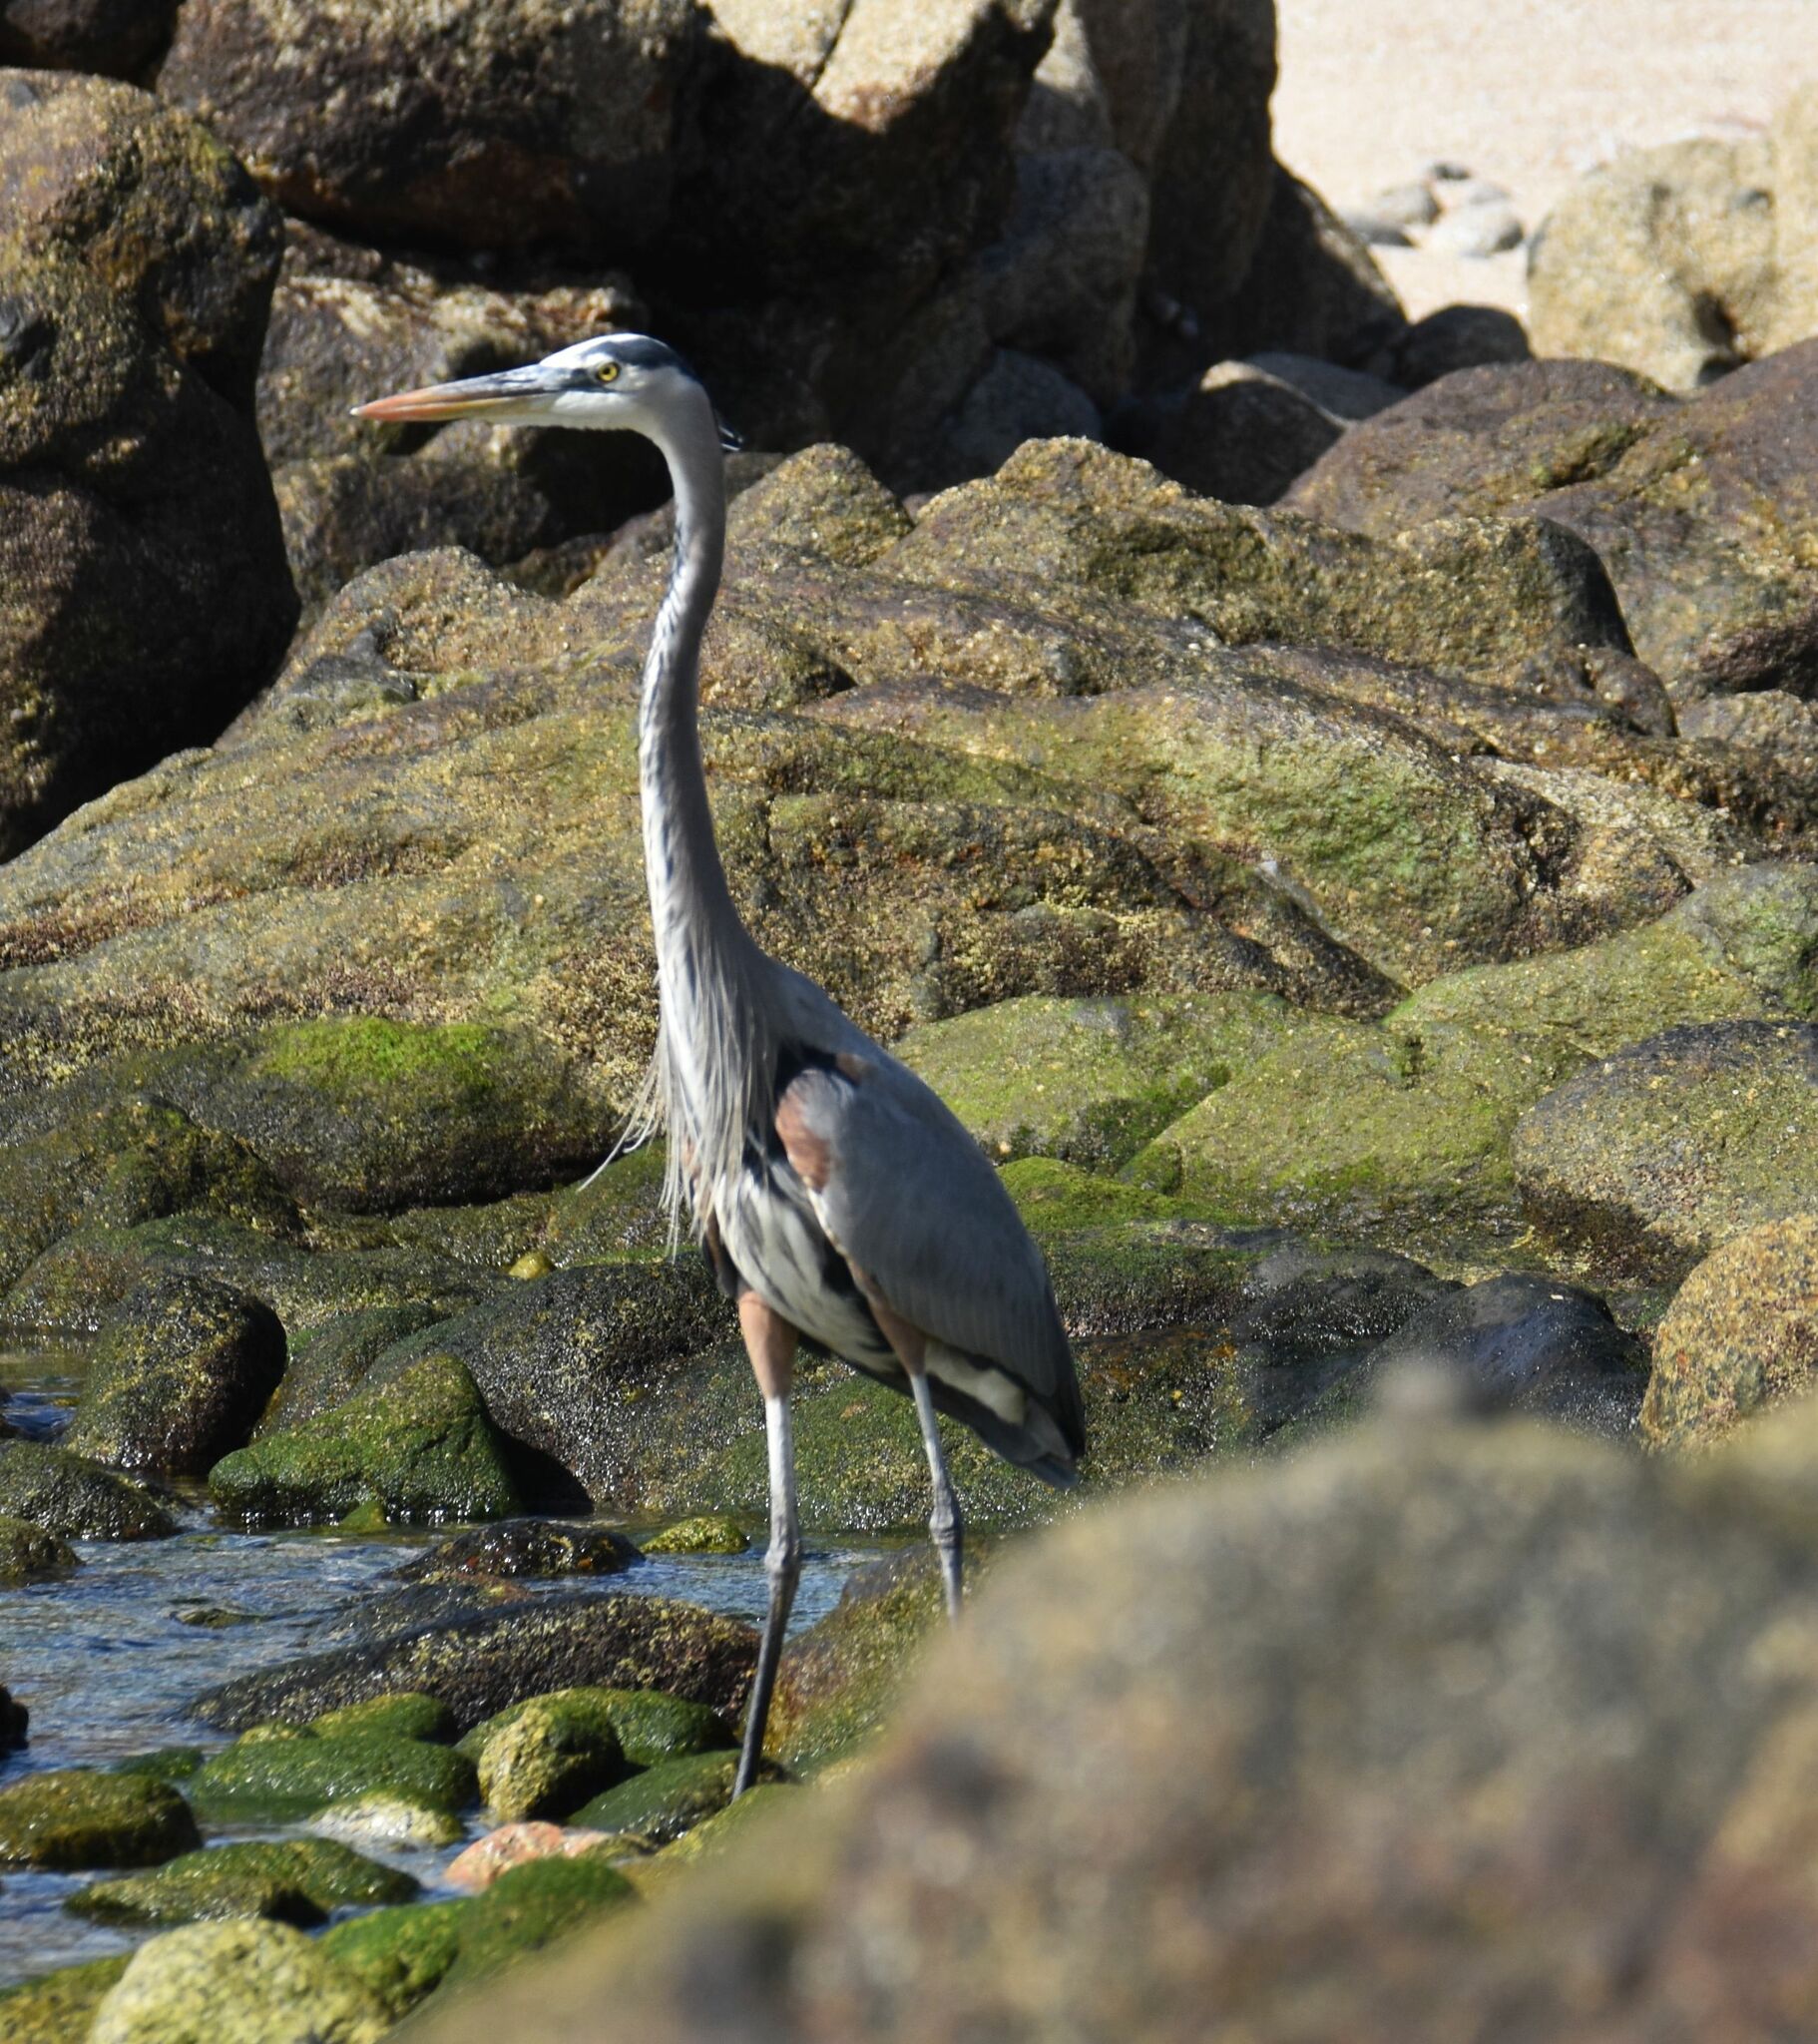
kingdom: Animalia
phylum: Chordata
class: Aves
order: Pelecaniformes
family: Ardeidae
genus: Ardea
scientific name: Ardea herodias
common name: Great blue heron
